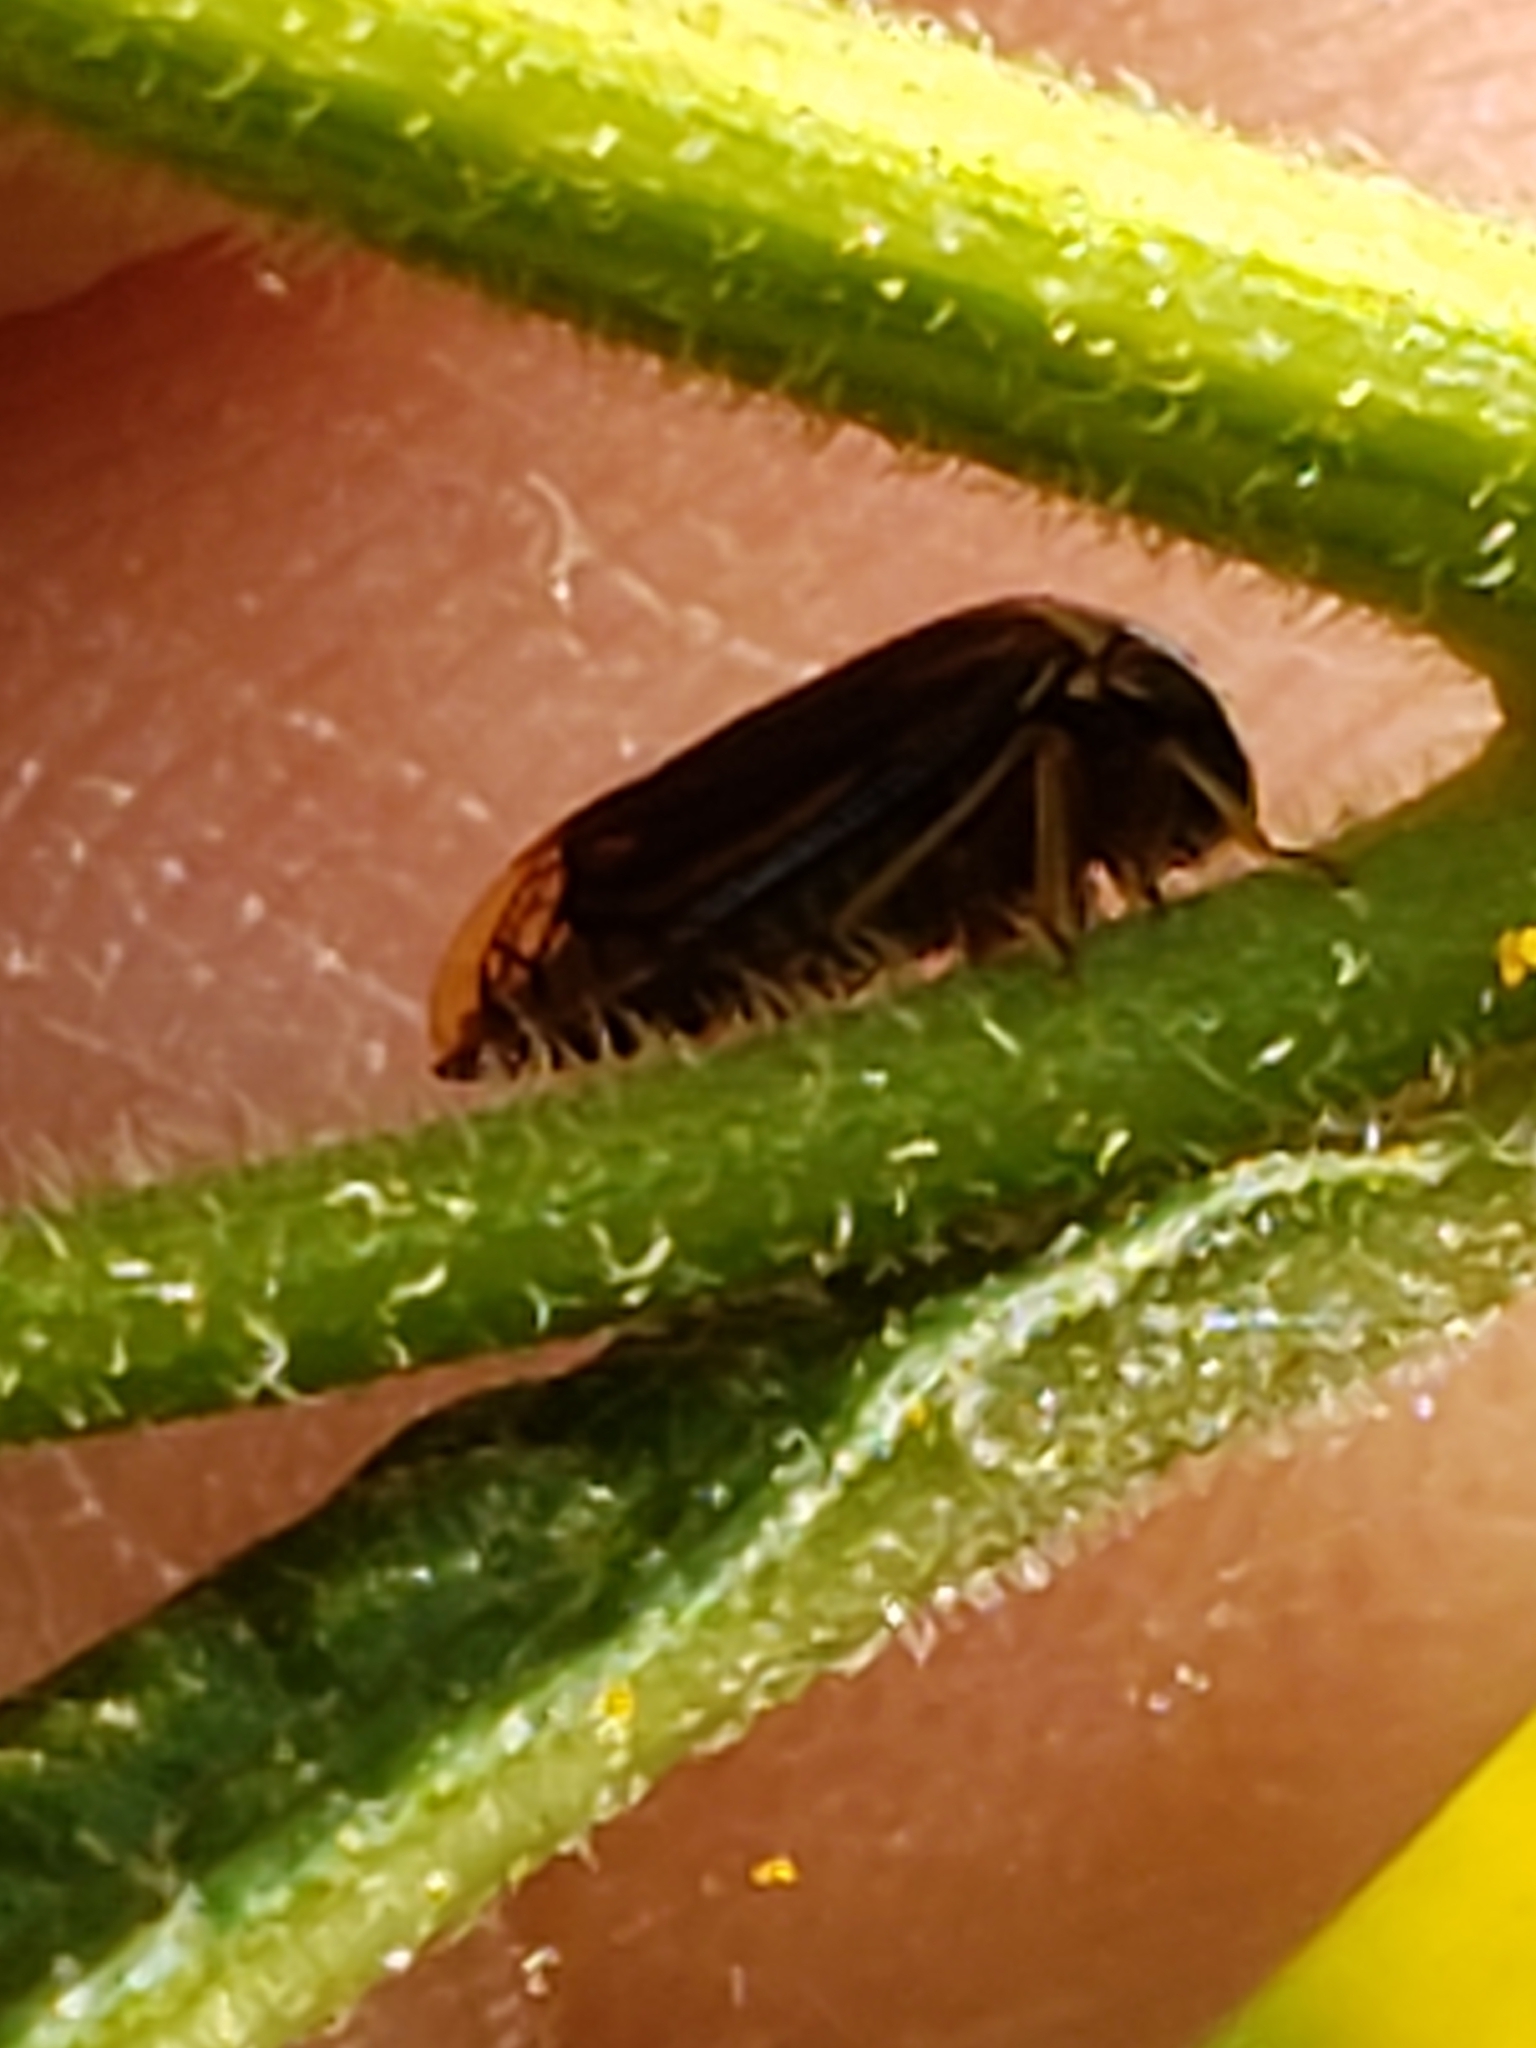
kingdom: Animalia
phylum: Arthropoda
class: Insecta
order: Hemiptera
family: Membracidae
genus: Acutalis
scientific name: Acutalis tartarea
